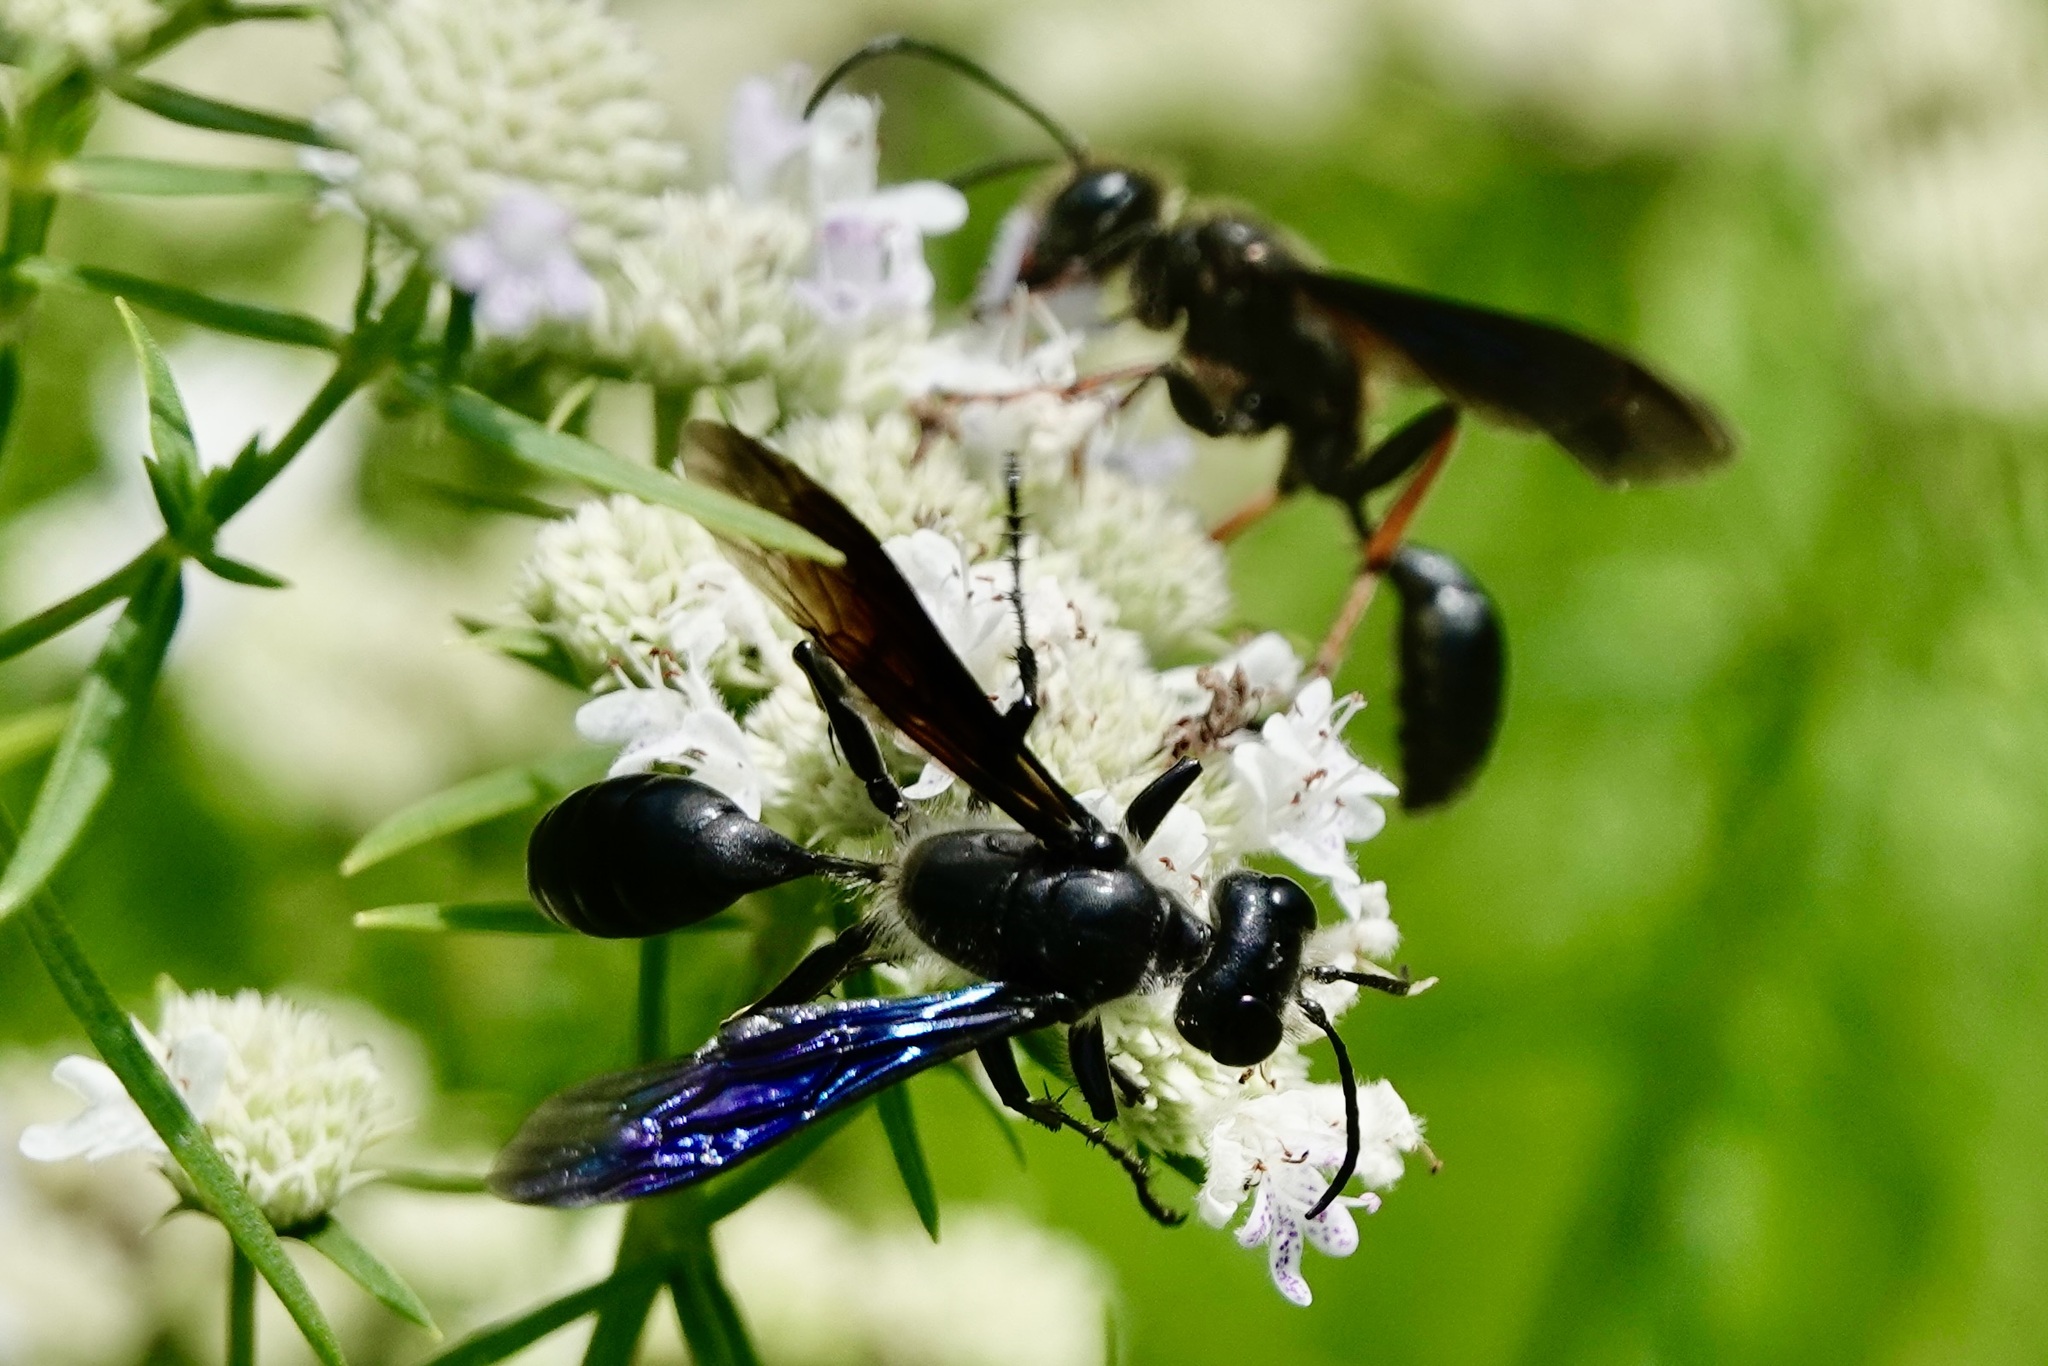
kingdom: Animalia
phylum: Arthropoda
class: Insecta
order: Hymenoptera
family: Sphecidae
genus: Isodontia
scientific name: Isodontia auripes
